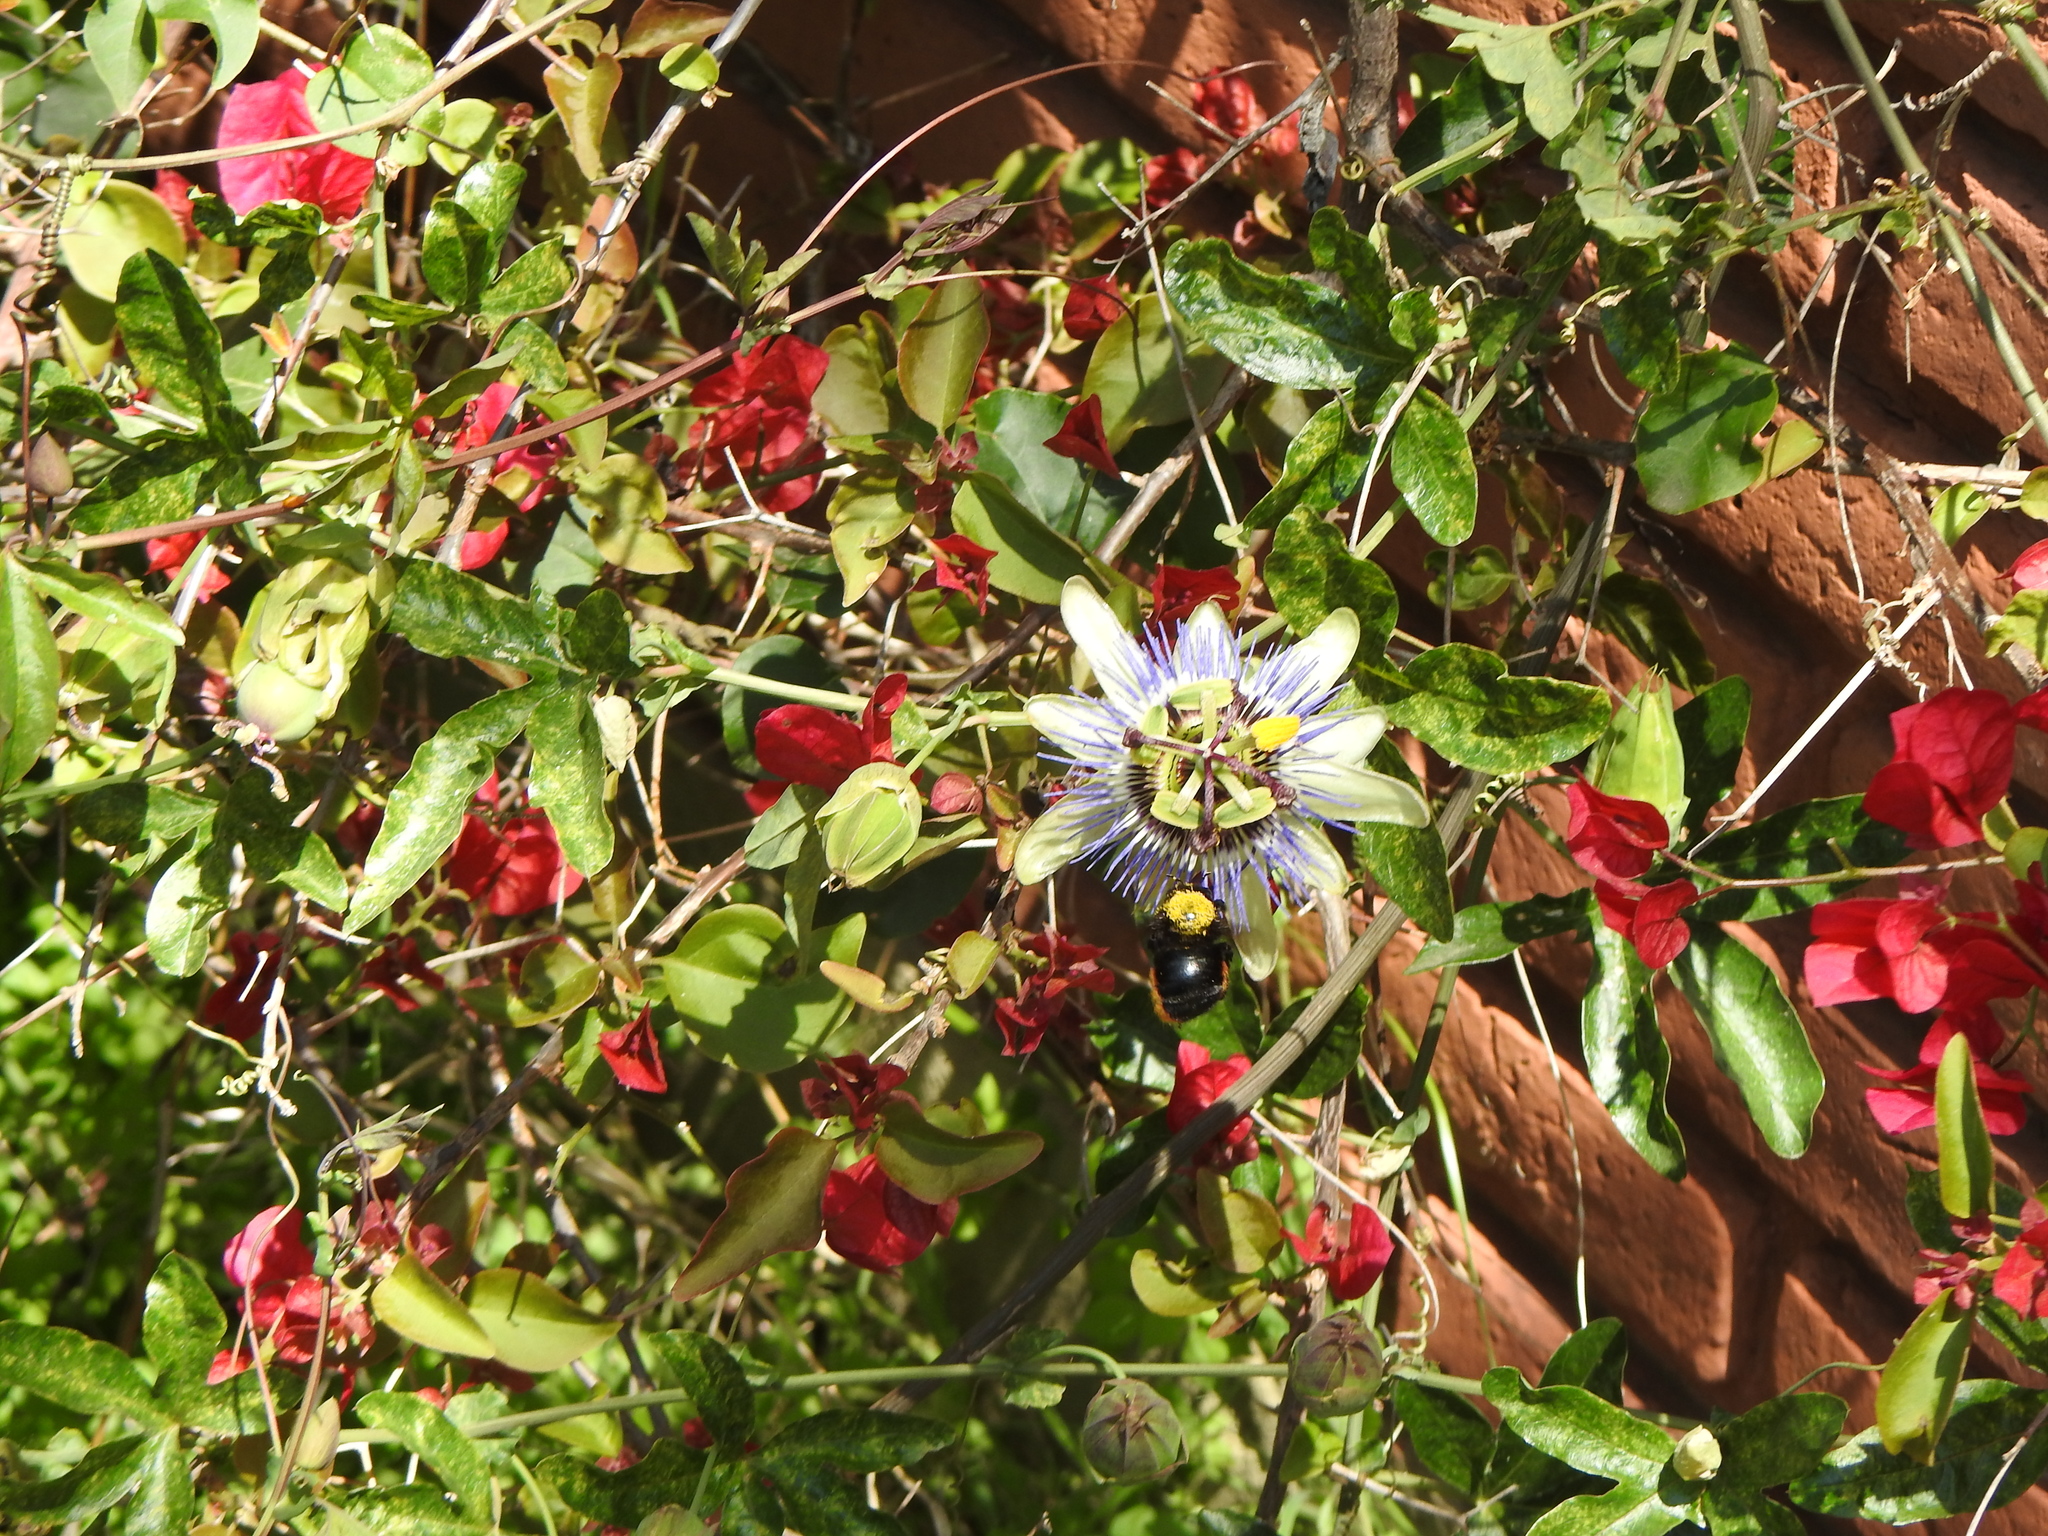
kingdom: Plantae
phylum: Tracheophyta
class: Magnoliopsida
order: Malpighiales
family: Passifloraceae
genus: Passiflora
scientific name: Passiflora caerulea
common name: Blue passionflower
